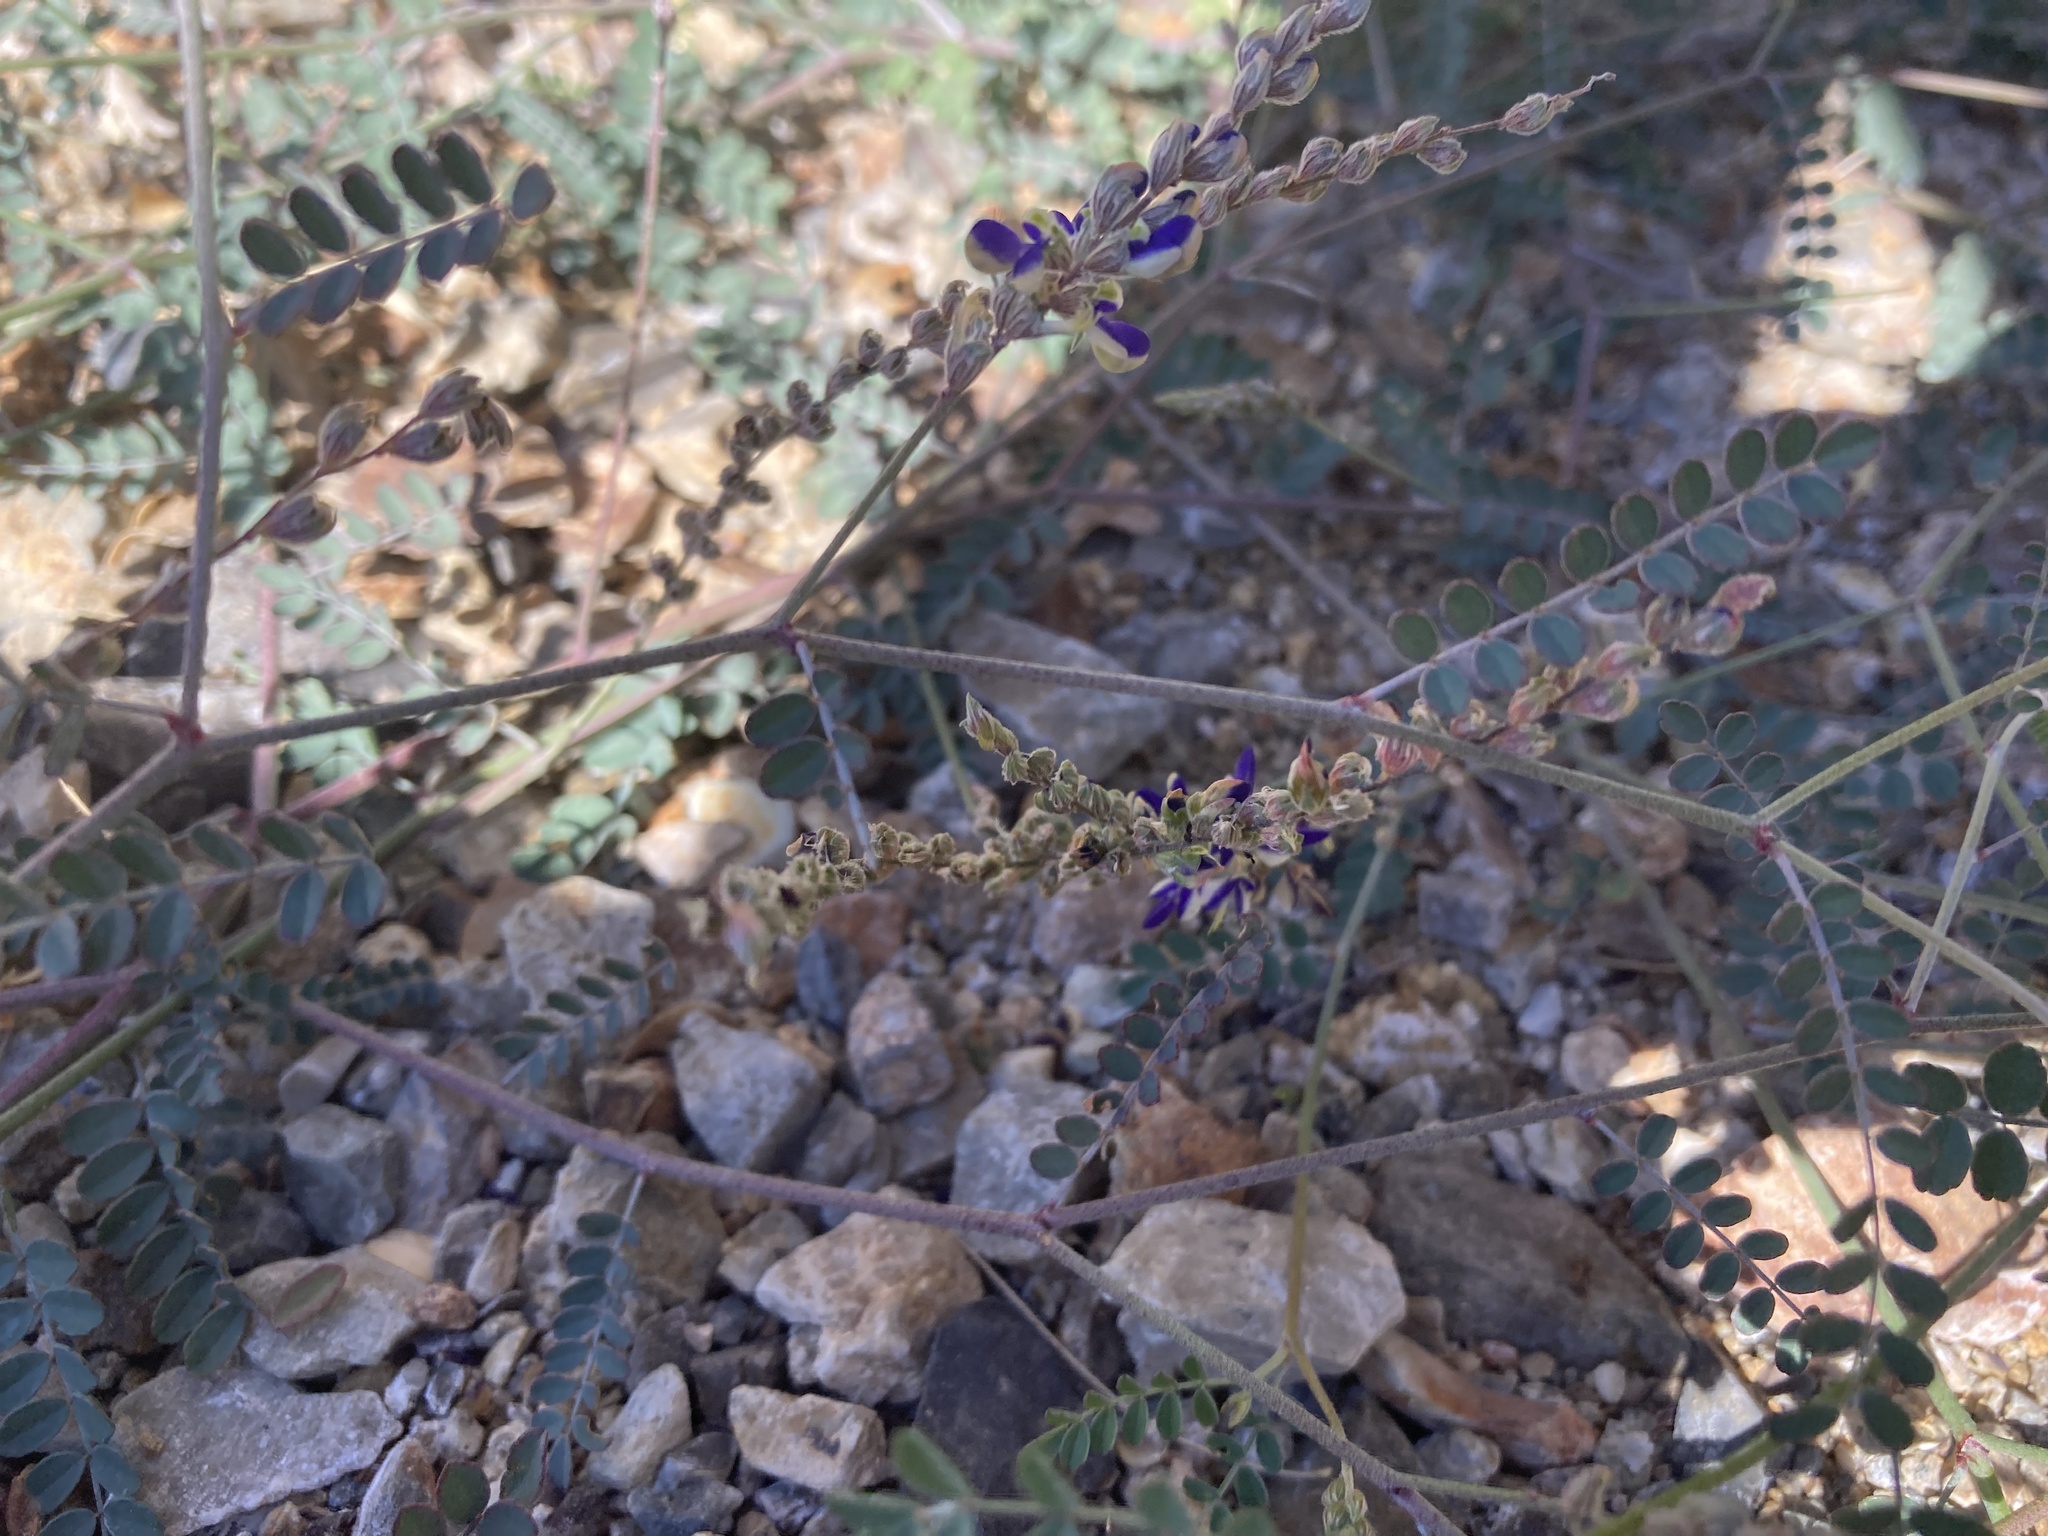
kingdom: Plantae
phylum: Tracheophyta
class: Magnoliopsida
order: Fabales
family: Fabaceae
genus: Marina
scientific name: Marina parryi
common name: Parry's marina
